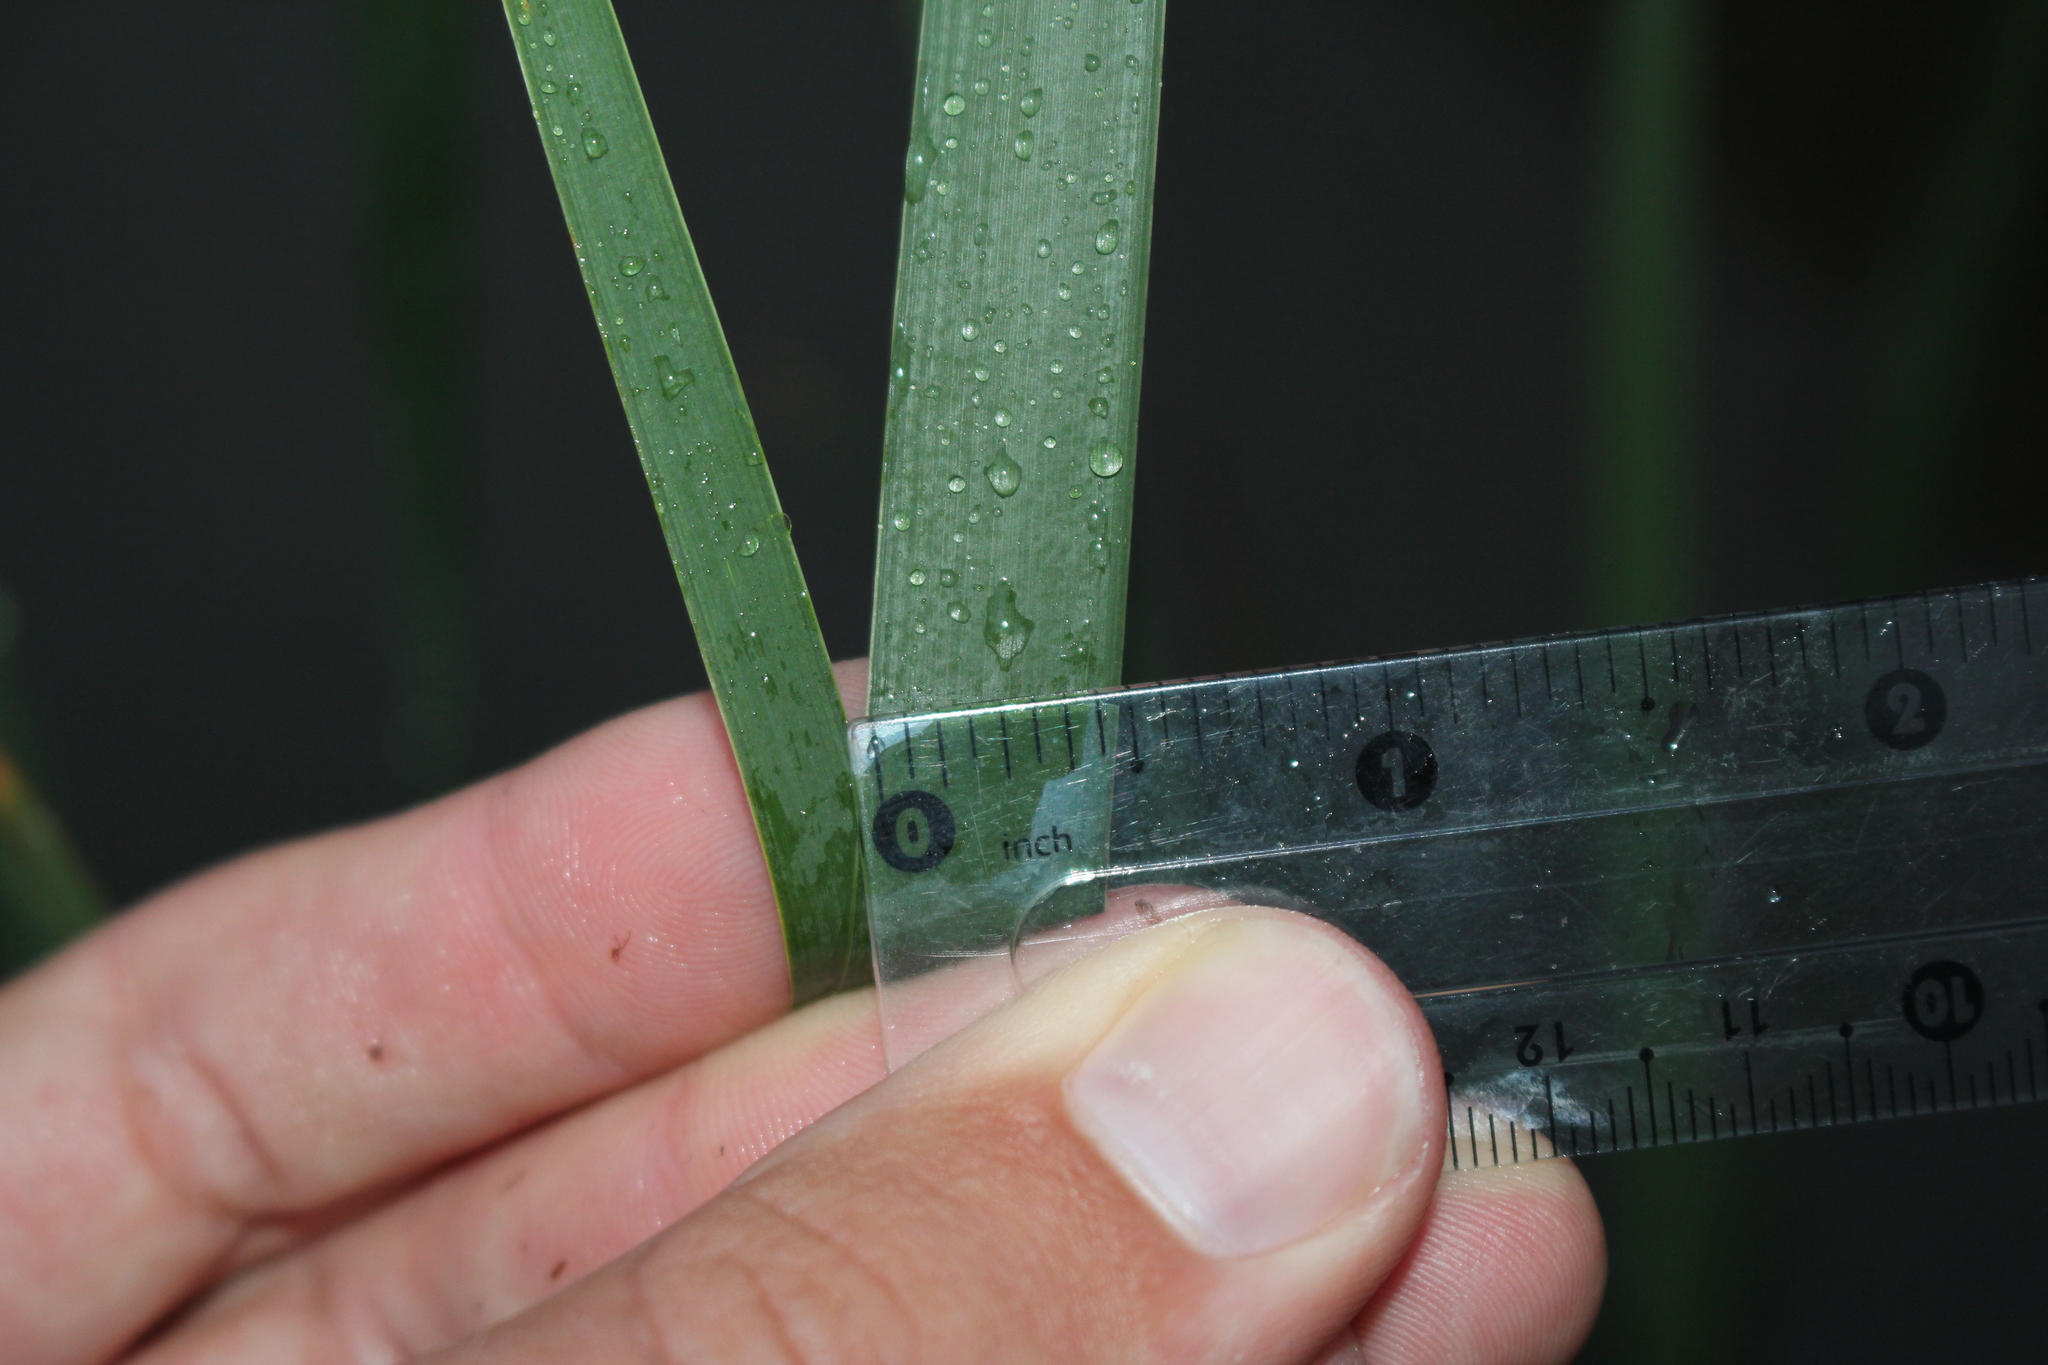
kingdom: Plantae
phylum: Tracheophyta
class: Liliopsida
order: Poales
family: Typhaceae
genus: Typha
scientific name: Typha angustifolia
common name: Lesser bulrush
